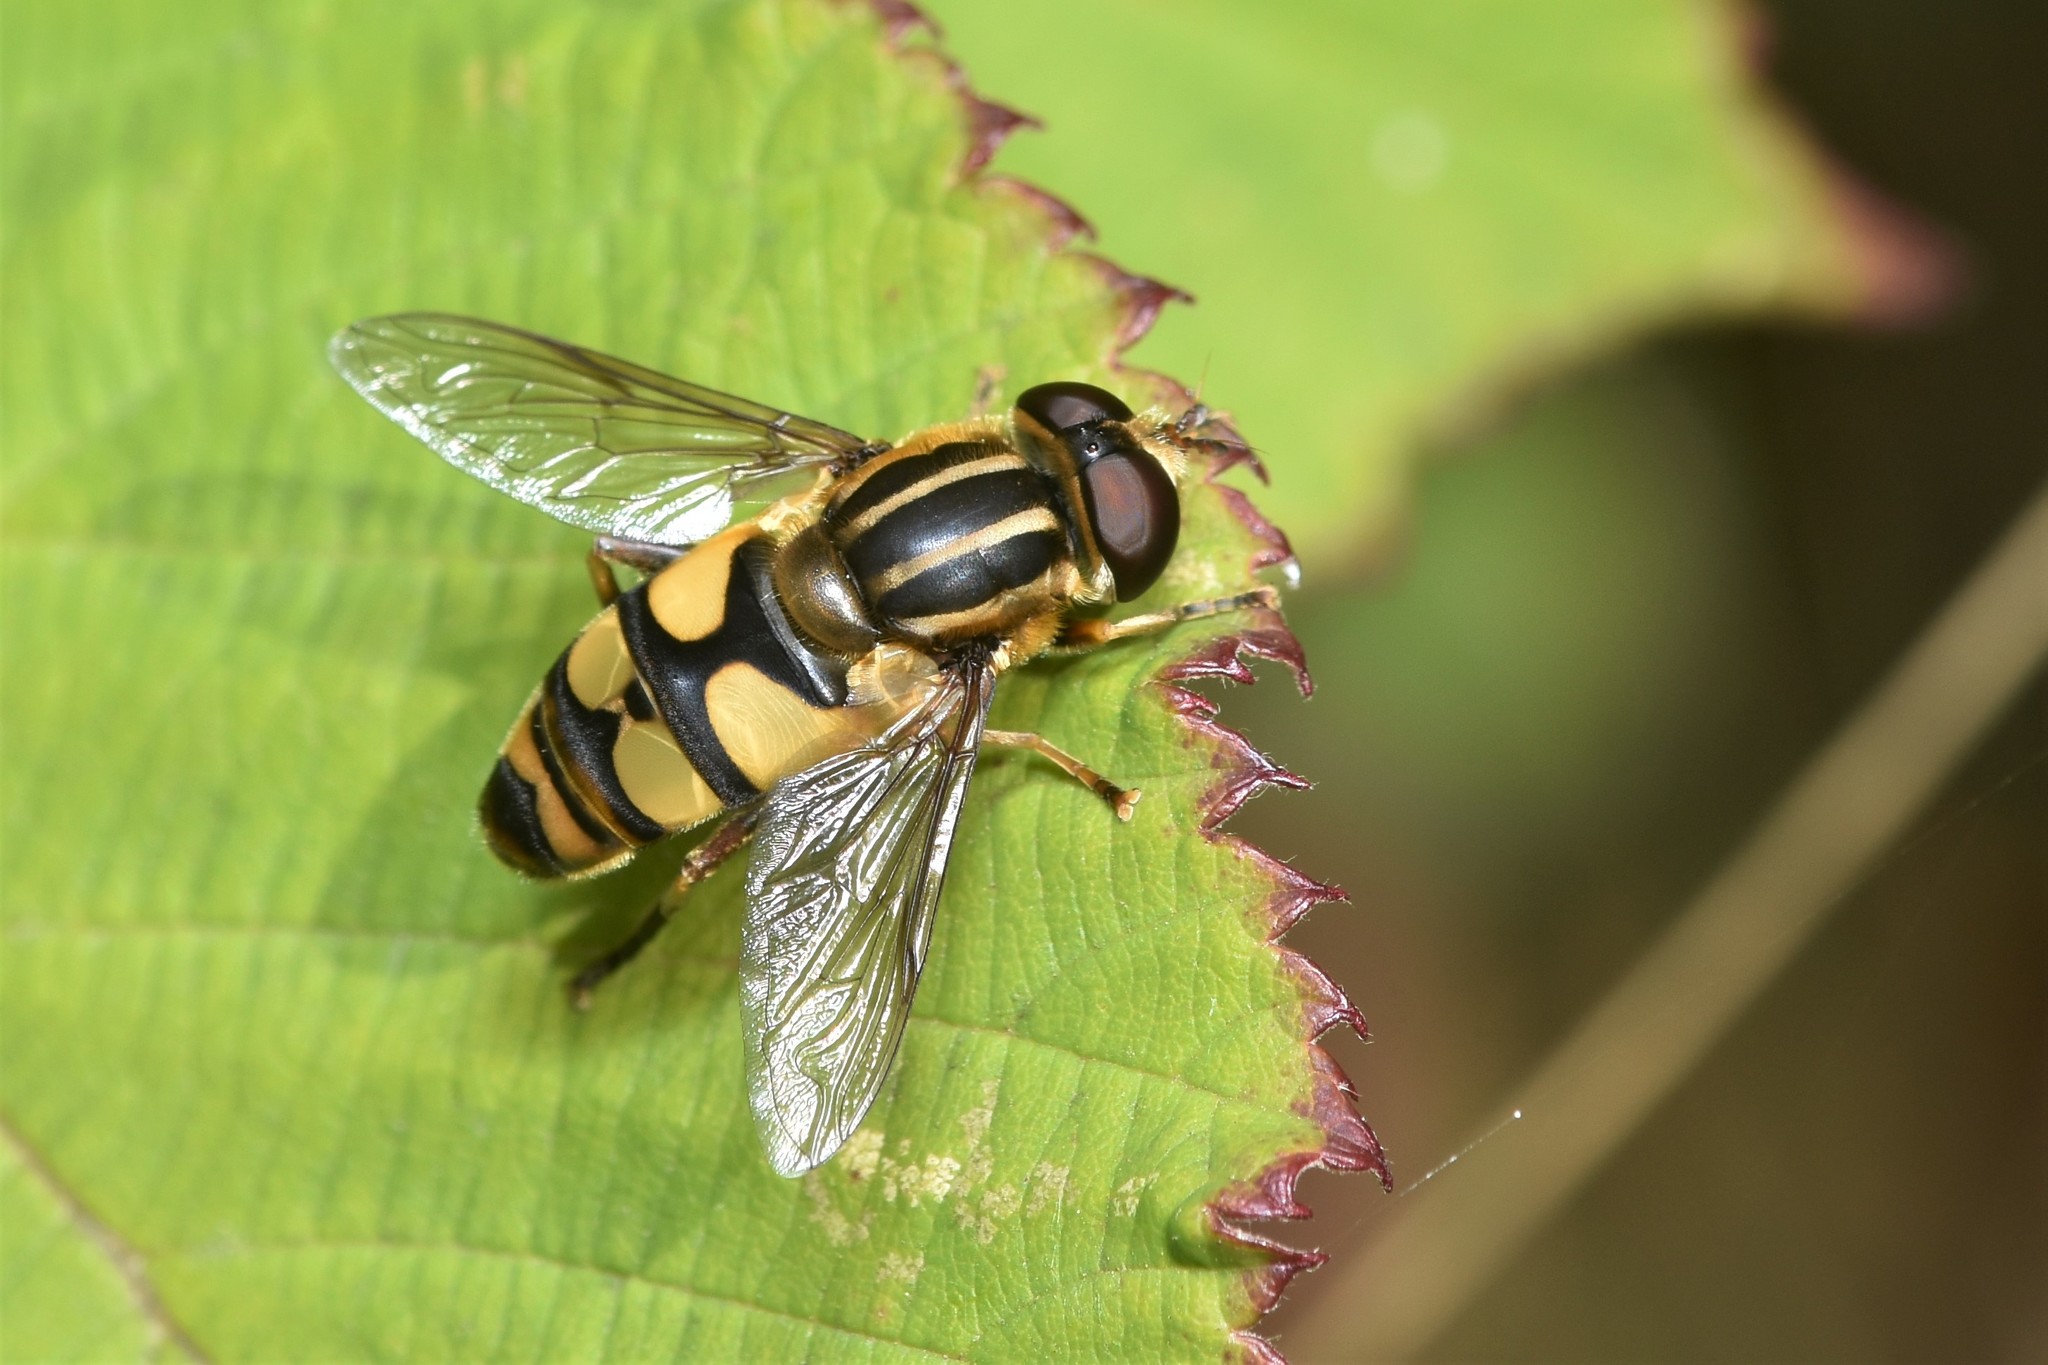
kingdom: Animalia
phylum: Arthropoda
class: Insecta
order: Diptera
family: Syrphidae
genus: Helophilus
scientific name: Helophilus fasciatus
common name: Narrow-headed marsh fly
